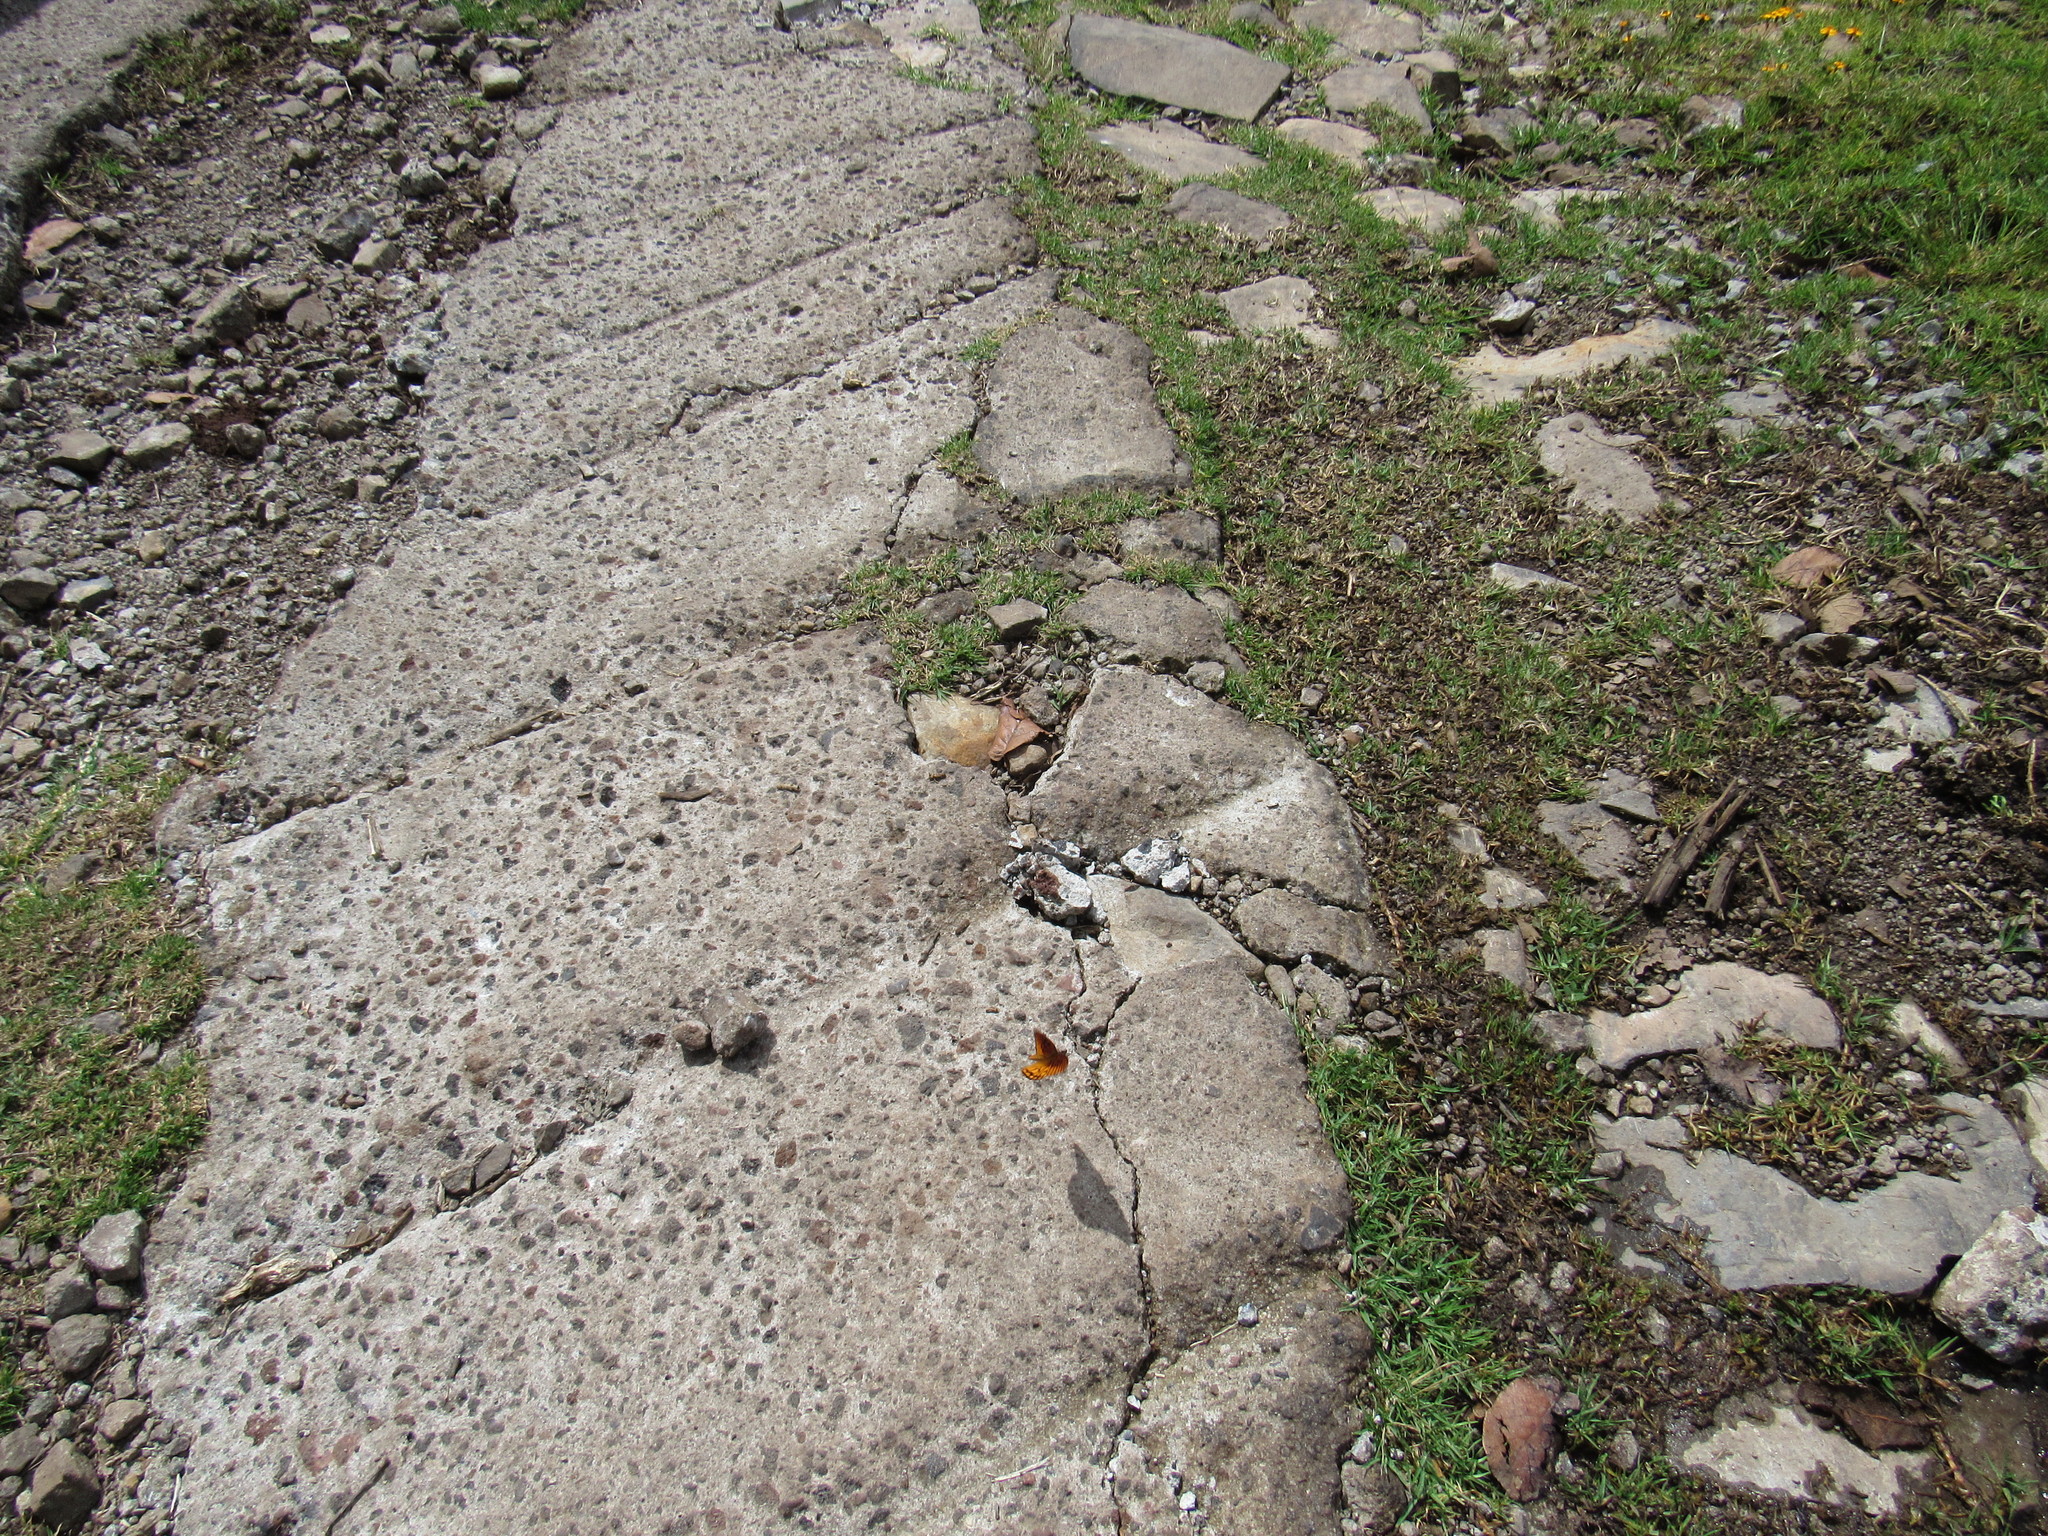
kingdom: Animalia
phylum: Arthropoda
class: Insecta
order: Lepidoptera
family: Nymphalidae
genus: Dione
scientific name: Dione moneta
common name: Mexican silverspot
